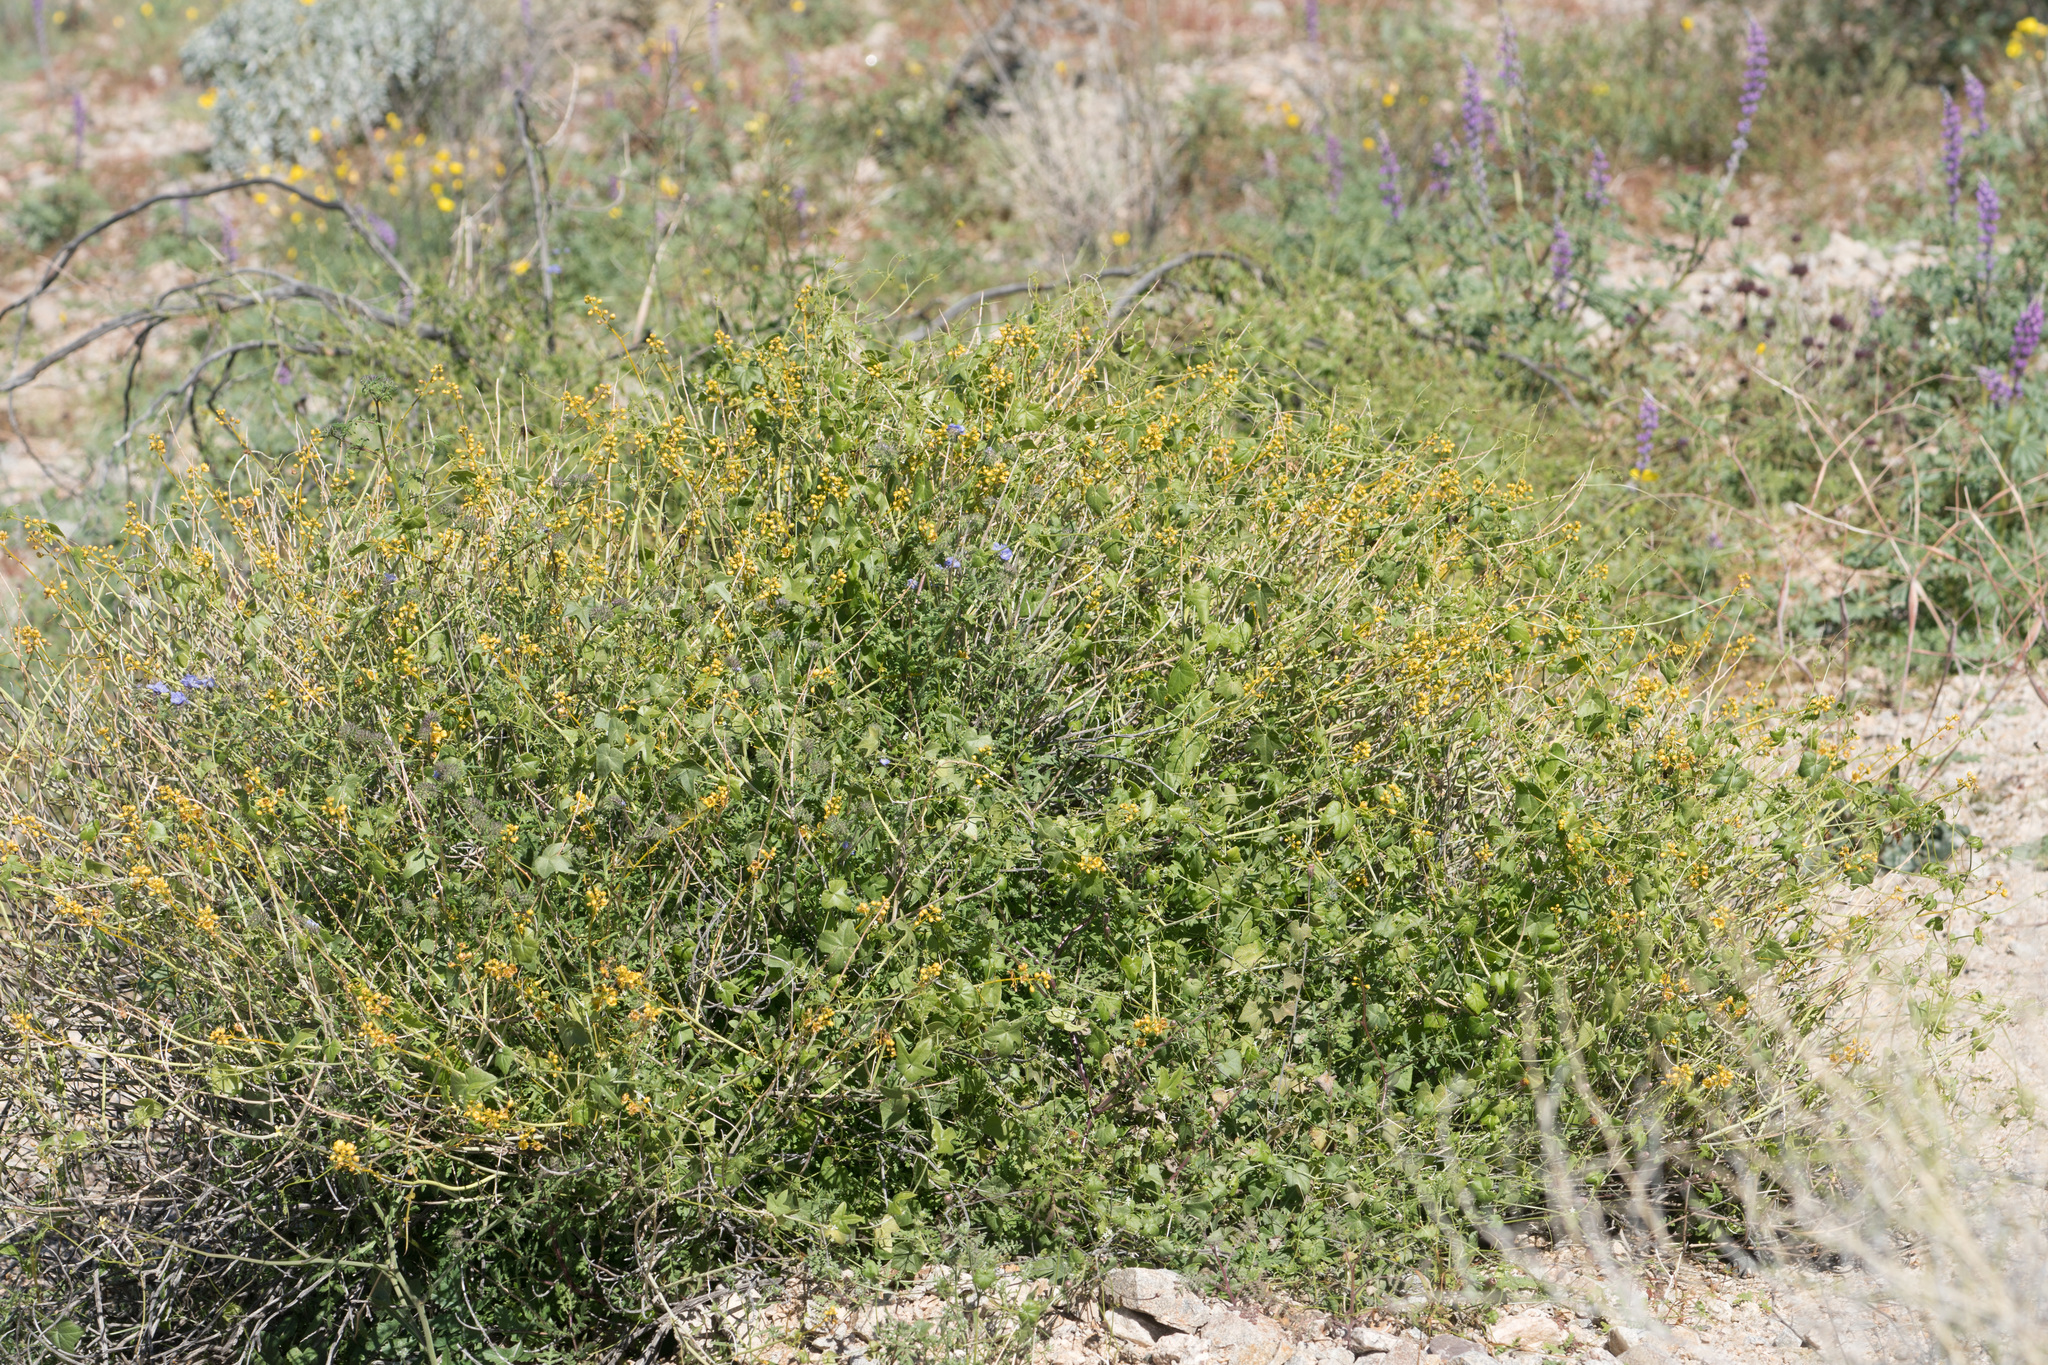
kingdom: Plantae
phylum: Tracheophyta
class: Magnoliopsida
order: Fabales
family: Fabaceae
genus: Senna
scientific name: Senna armata
